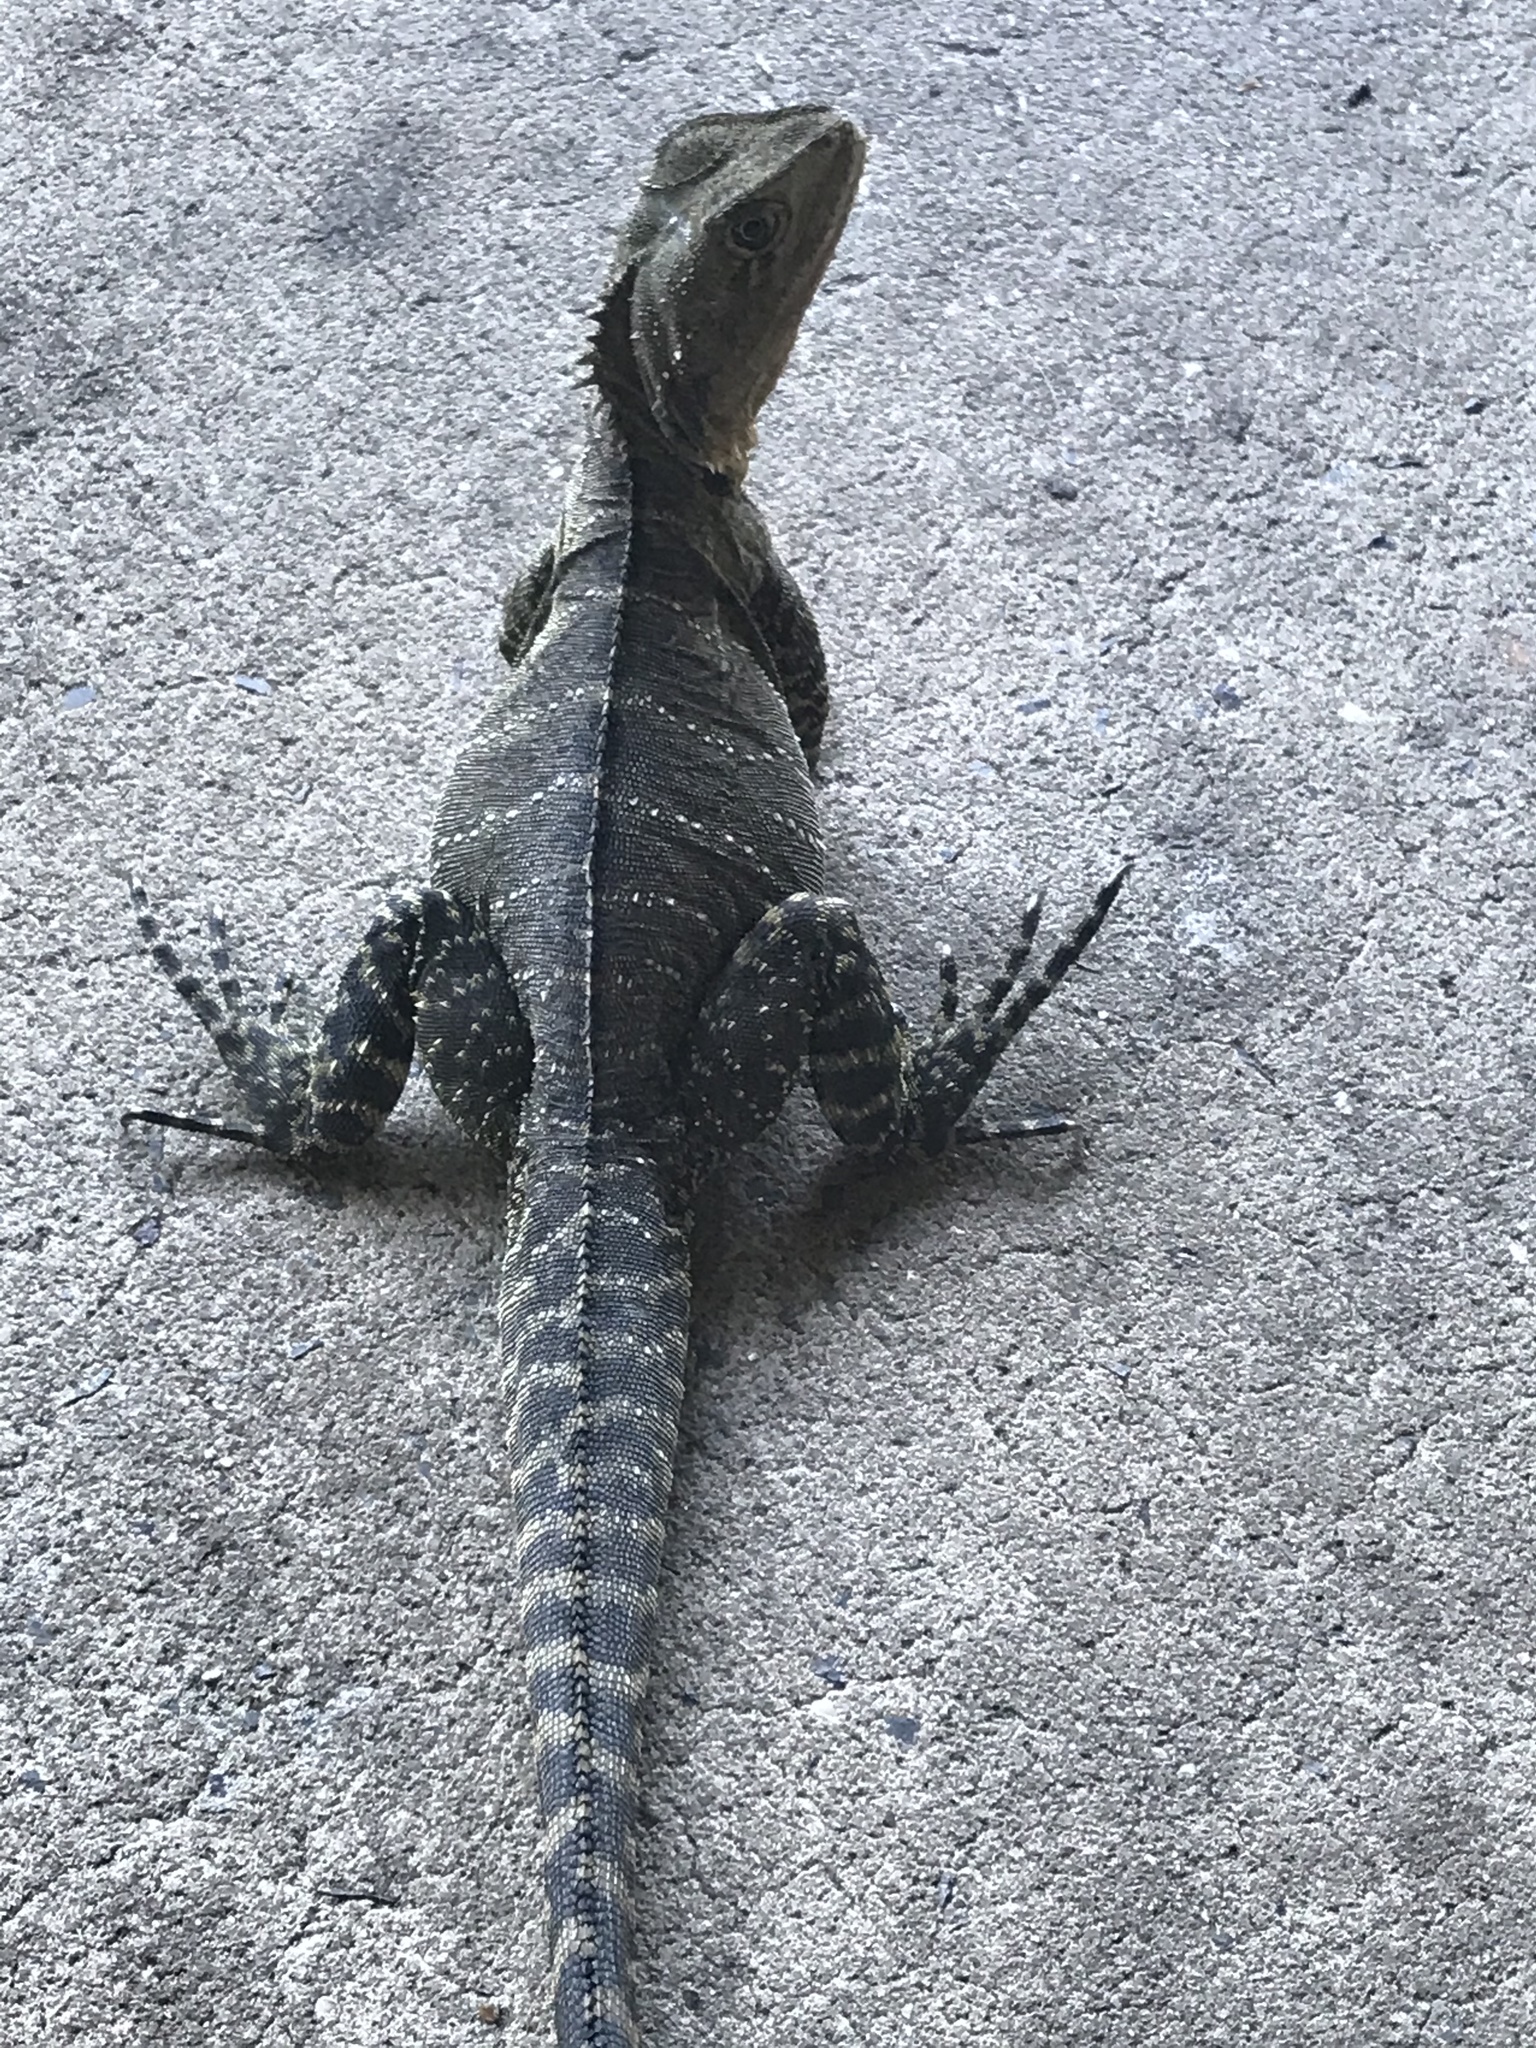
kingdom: Animalia
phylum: Chordata
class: Squamata
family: Agamidae
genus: Intellagama
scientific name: Intellagama lesueurii
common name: Eastern water dragon
